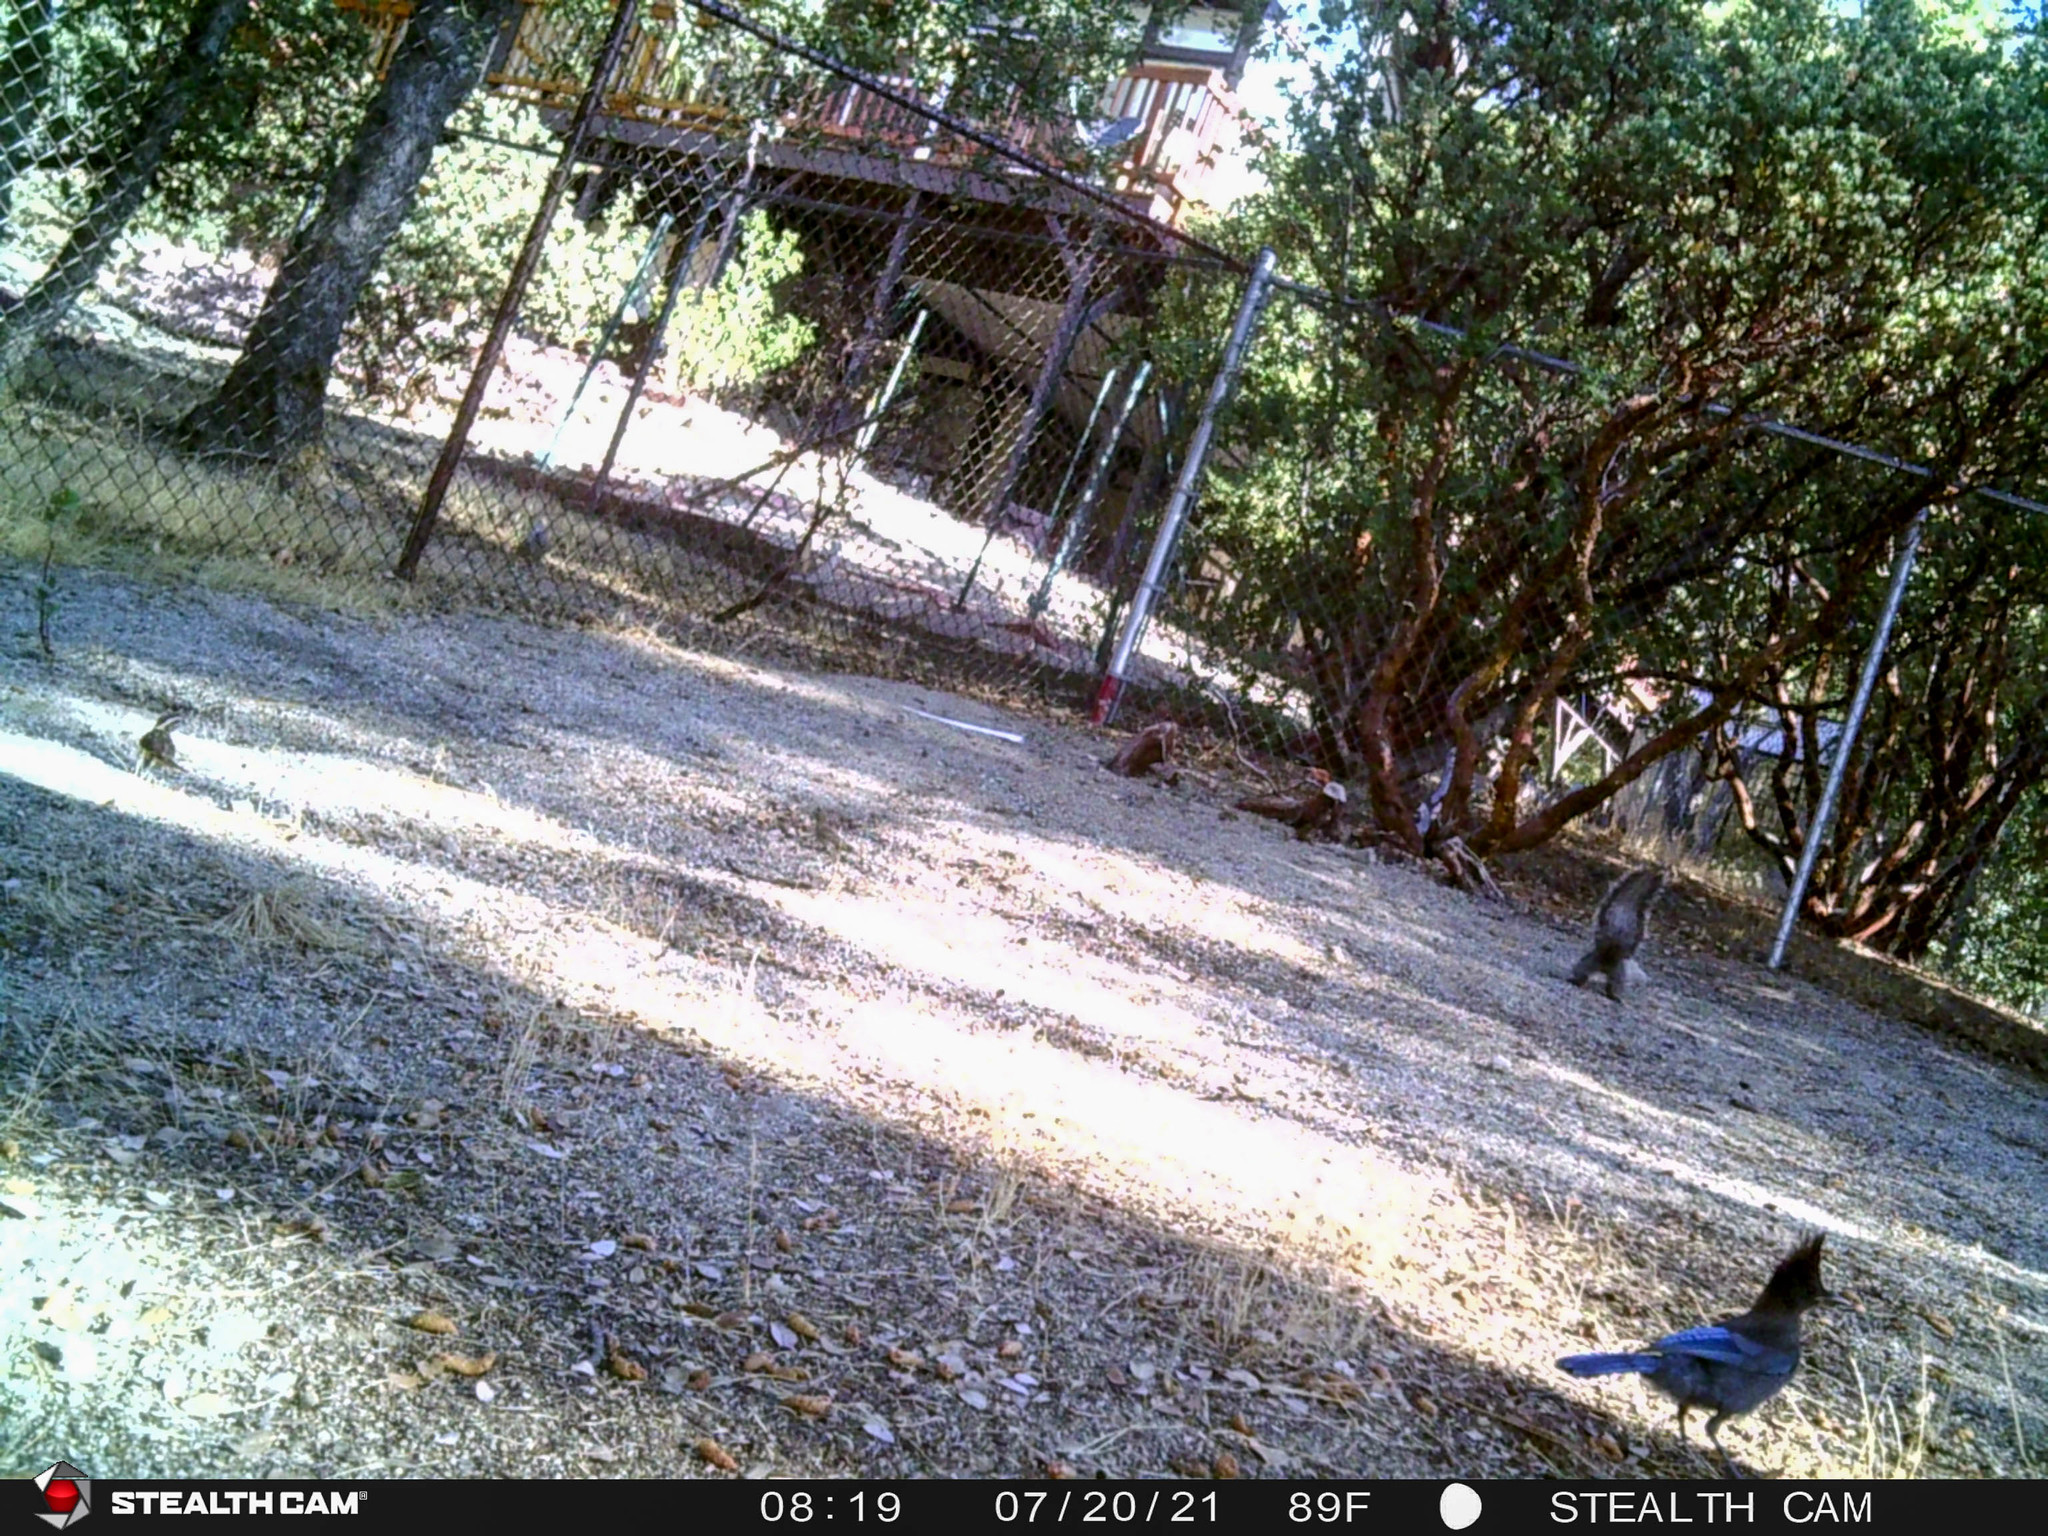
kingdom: Animalia
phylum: Chordata
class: Aves
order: Passeriformes
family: Cardinalidae
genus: Pheucticus
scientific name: Pheucticus melanocephalus
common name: Black-headed grosbeak
